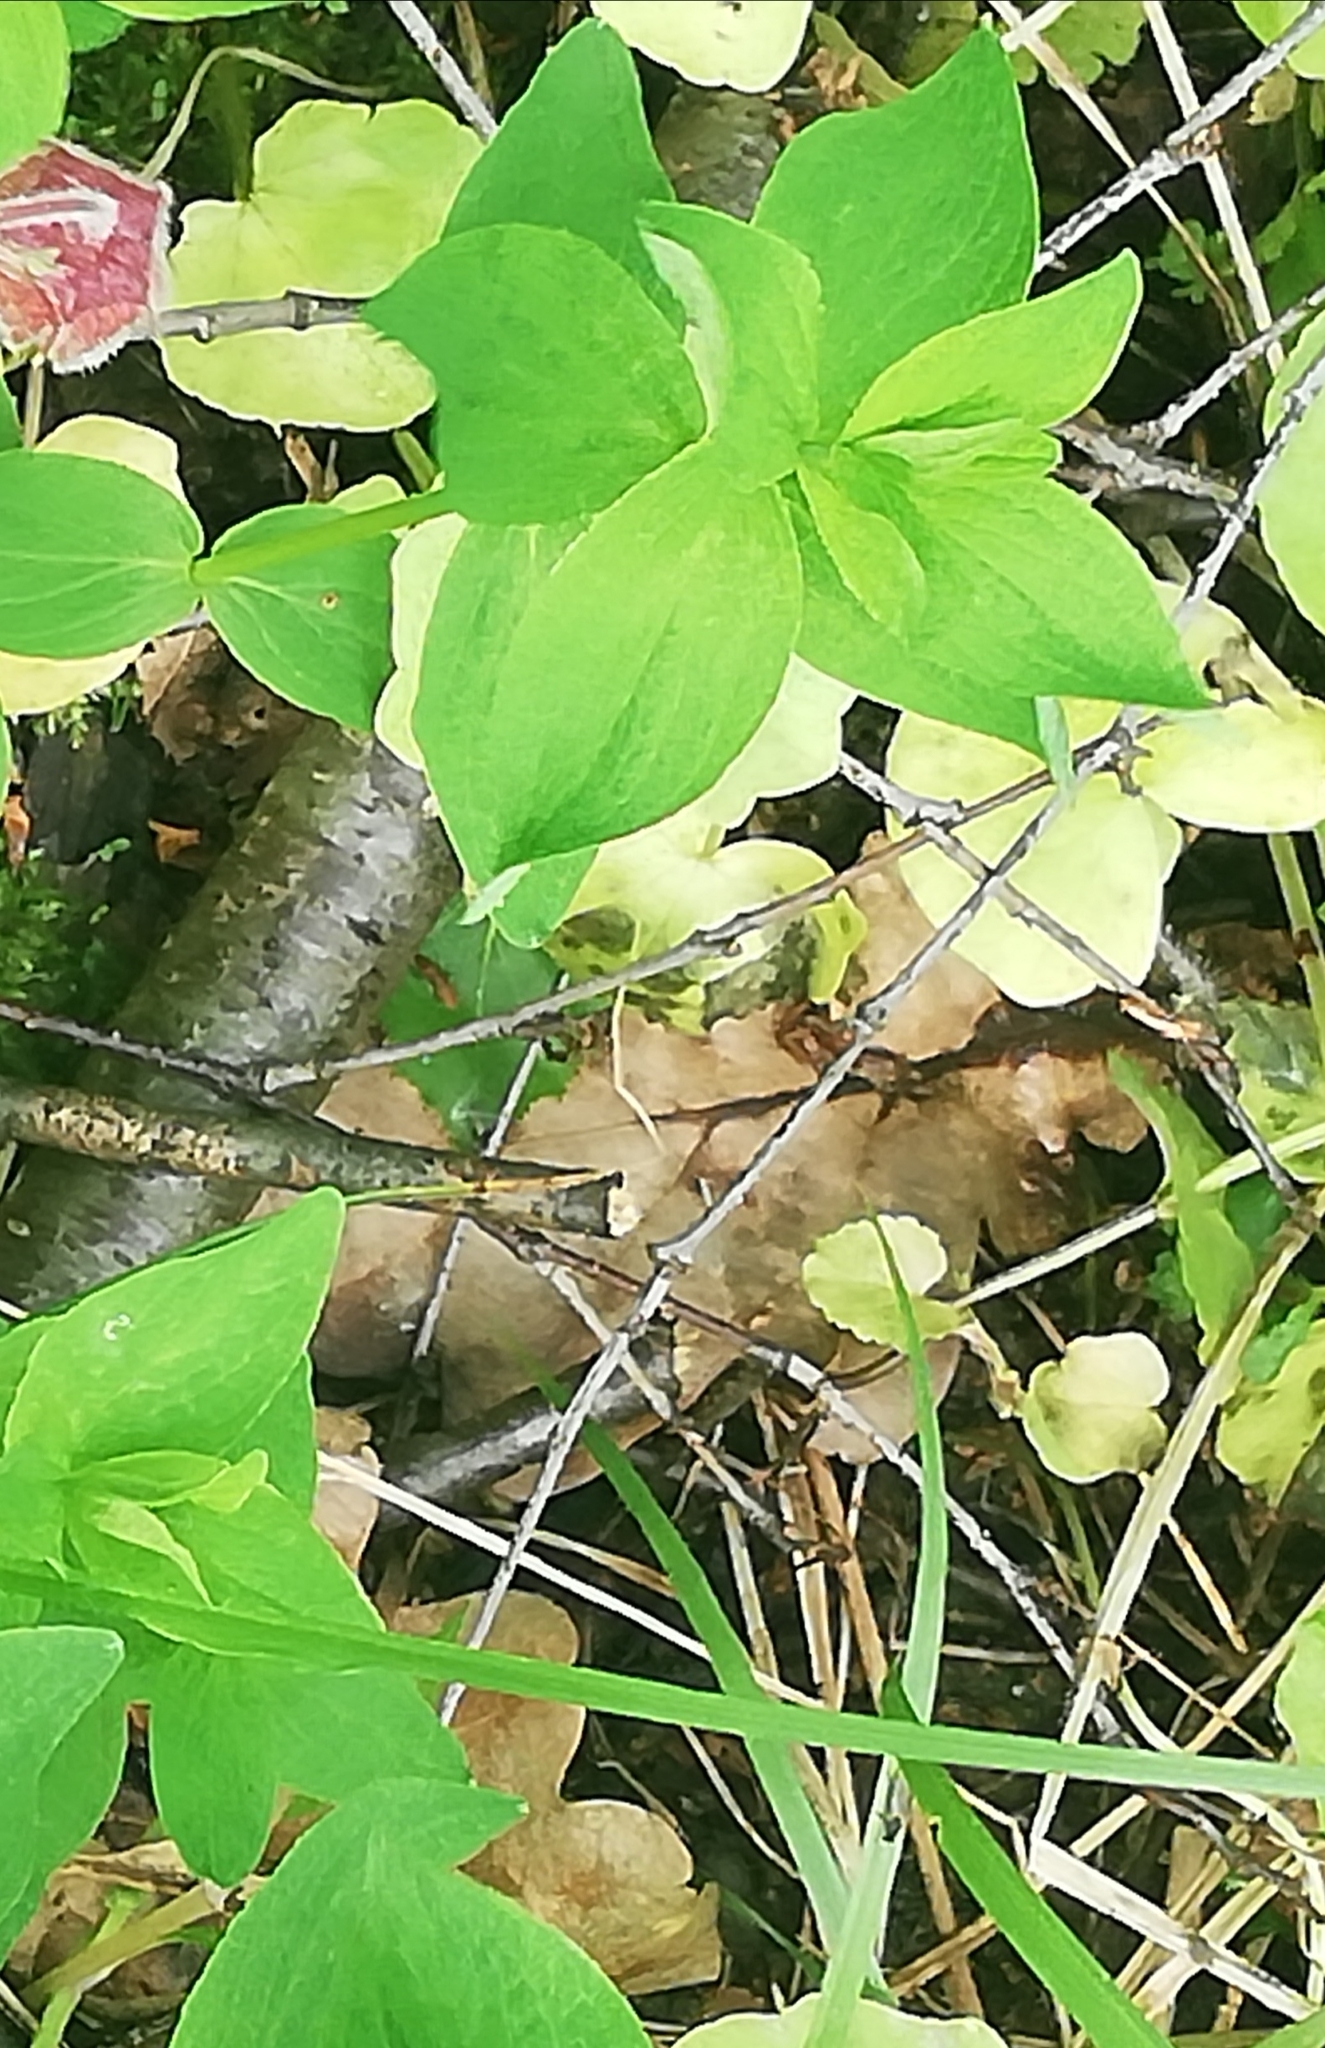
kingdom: Plantae
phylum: Tracheophyta
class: Magnoliopsida
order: Malpighiales
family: Hypericaceae
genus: Hypericum
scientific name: Hypericum maculatum
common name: Imperforate st. john's-wort
